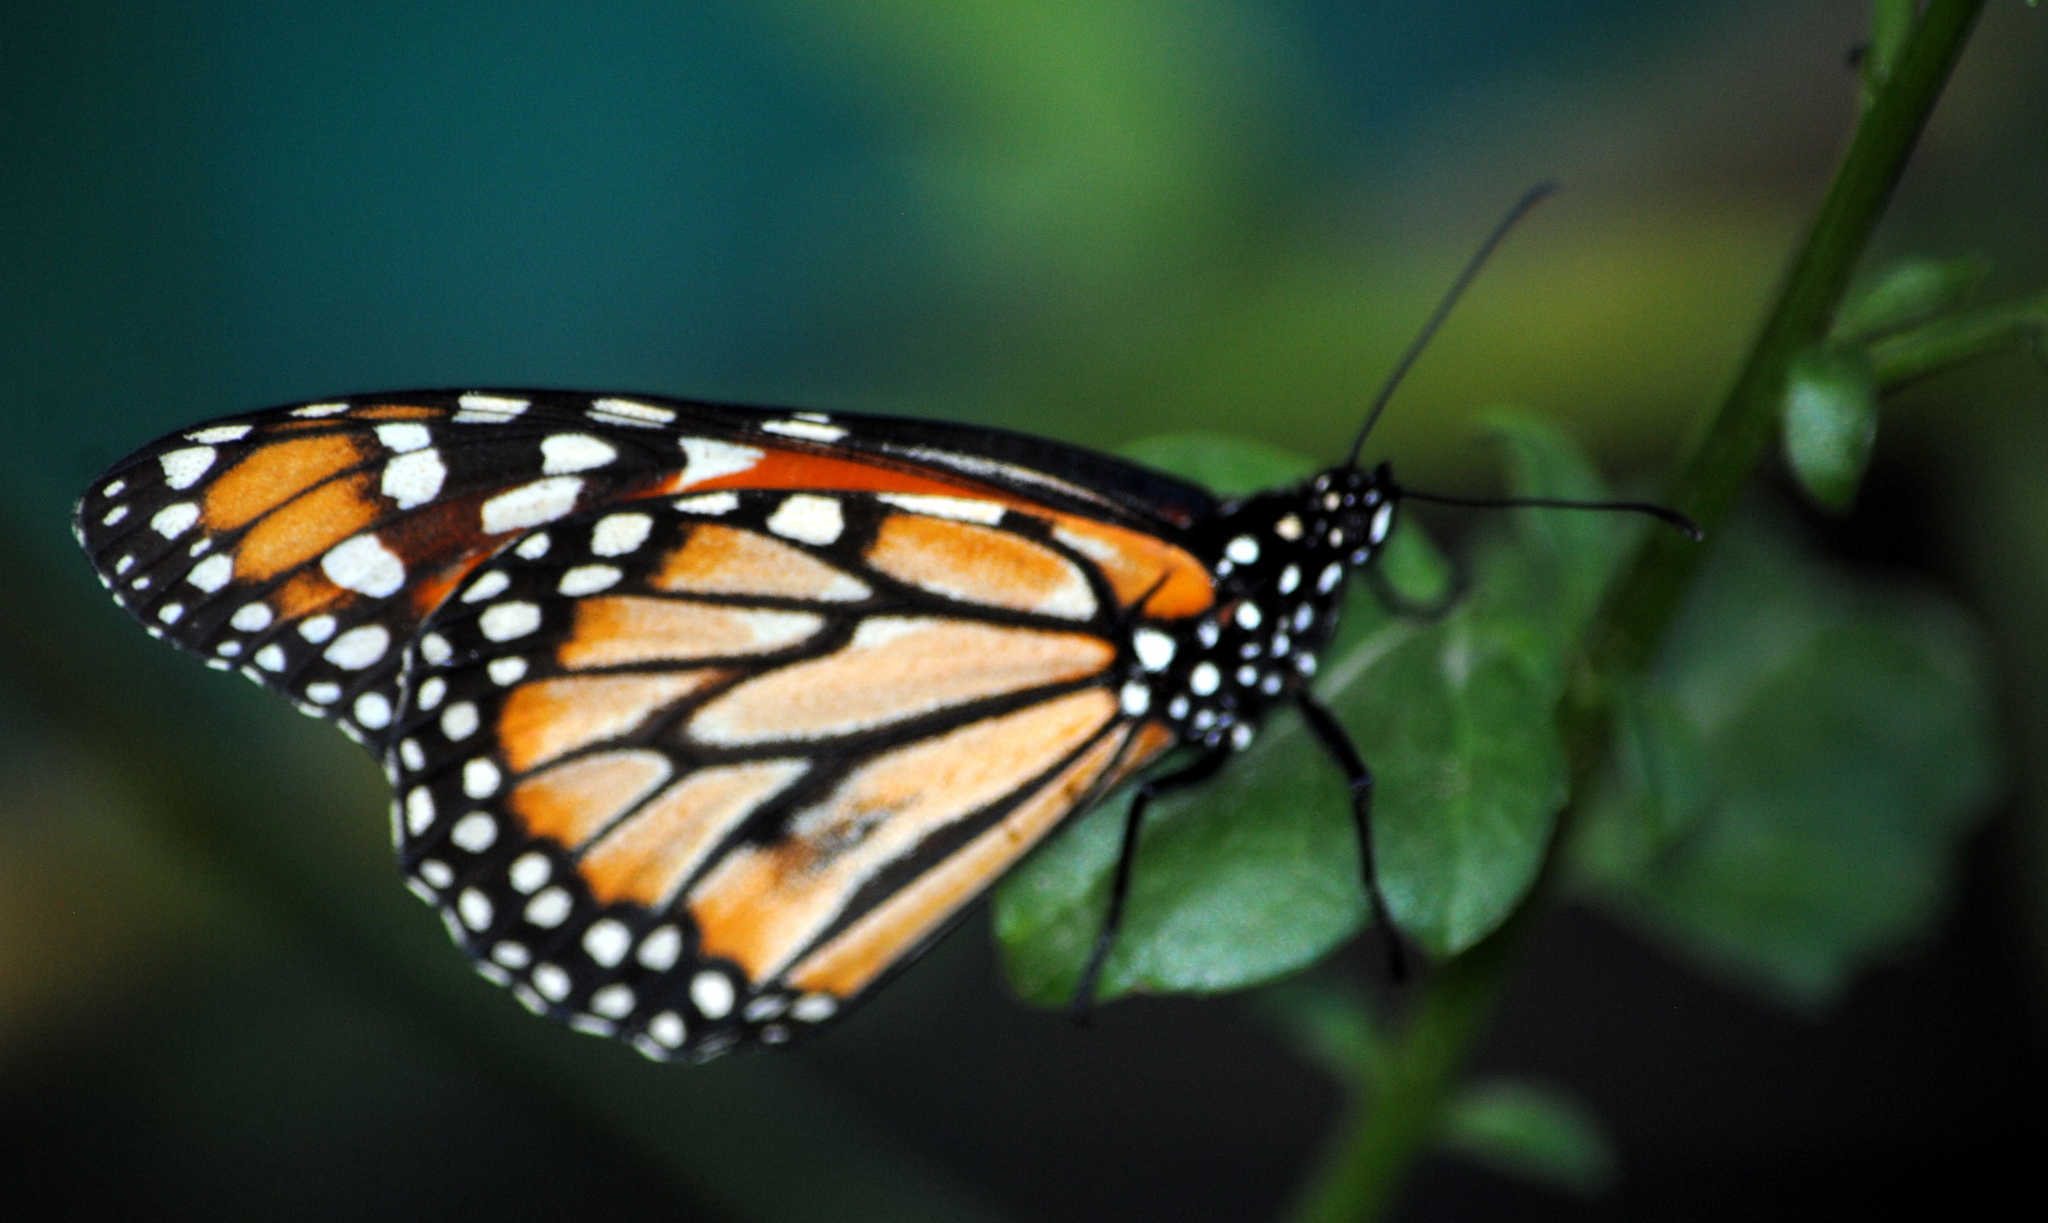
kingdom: Animalia
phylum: Arthropoda
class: Insecta
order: Lepidoptera
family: Nymphalidae
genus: Danaus
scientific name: Danaus erippus
